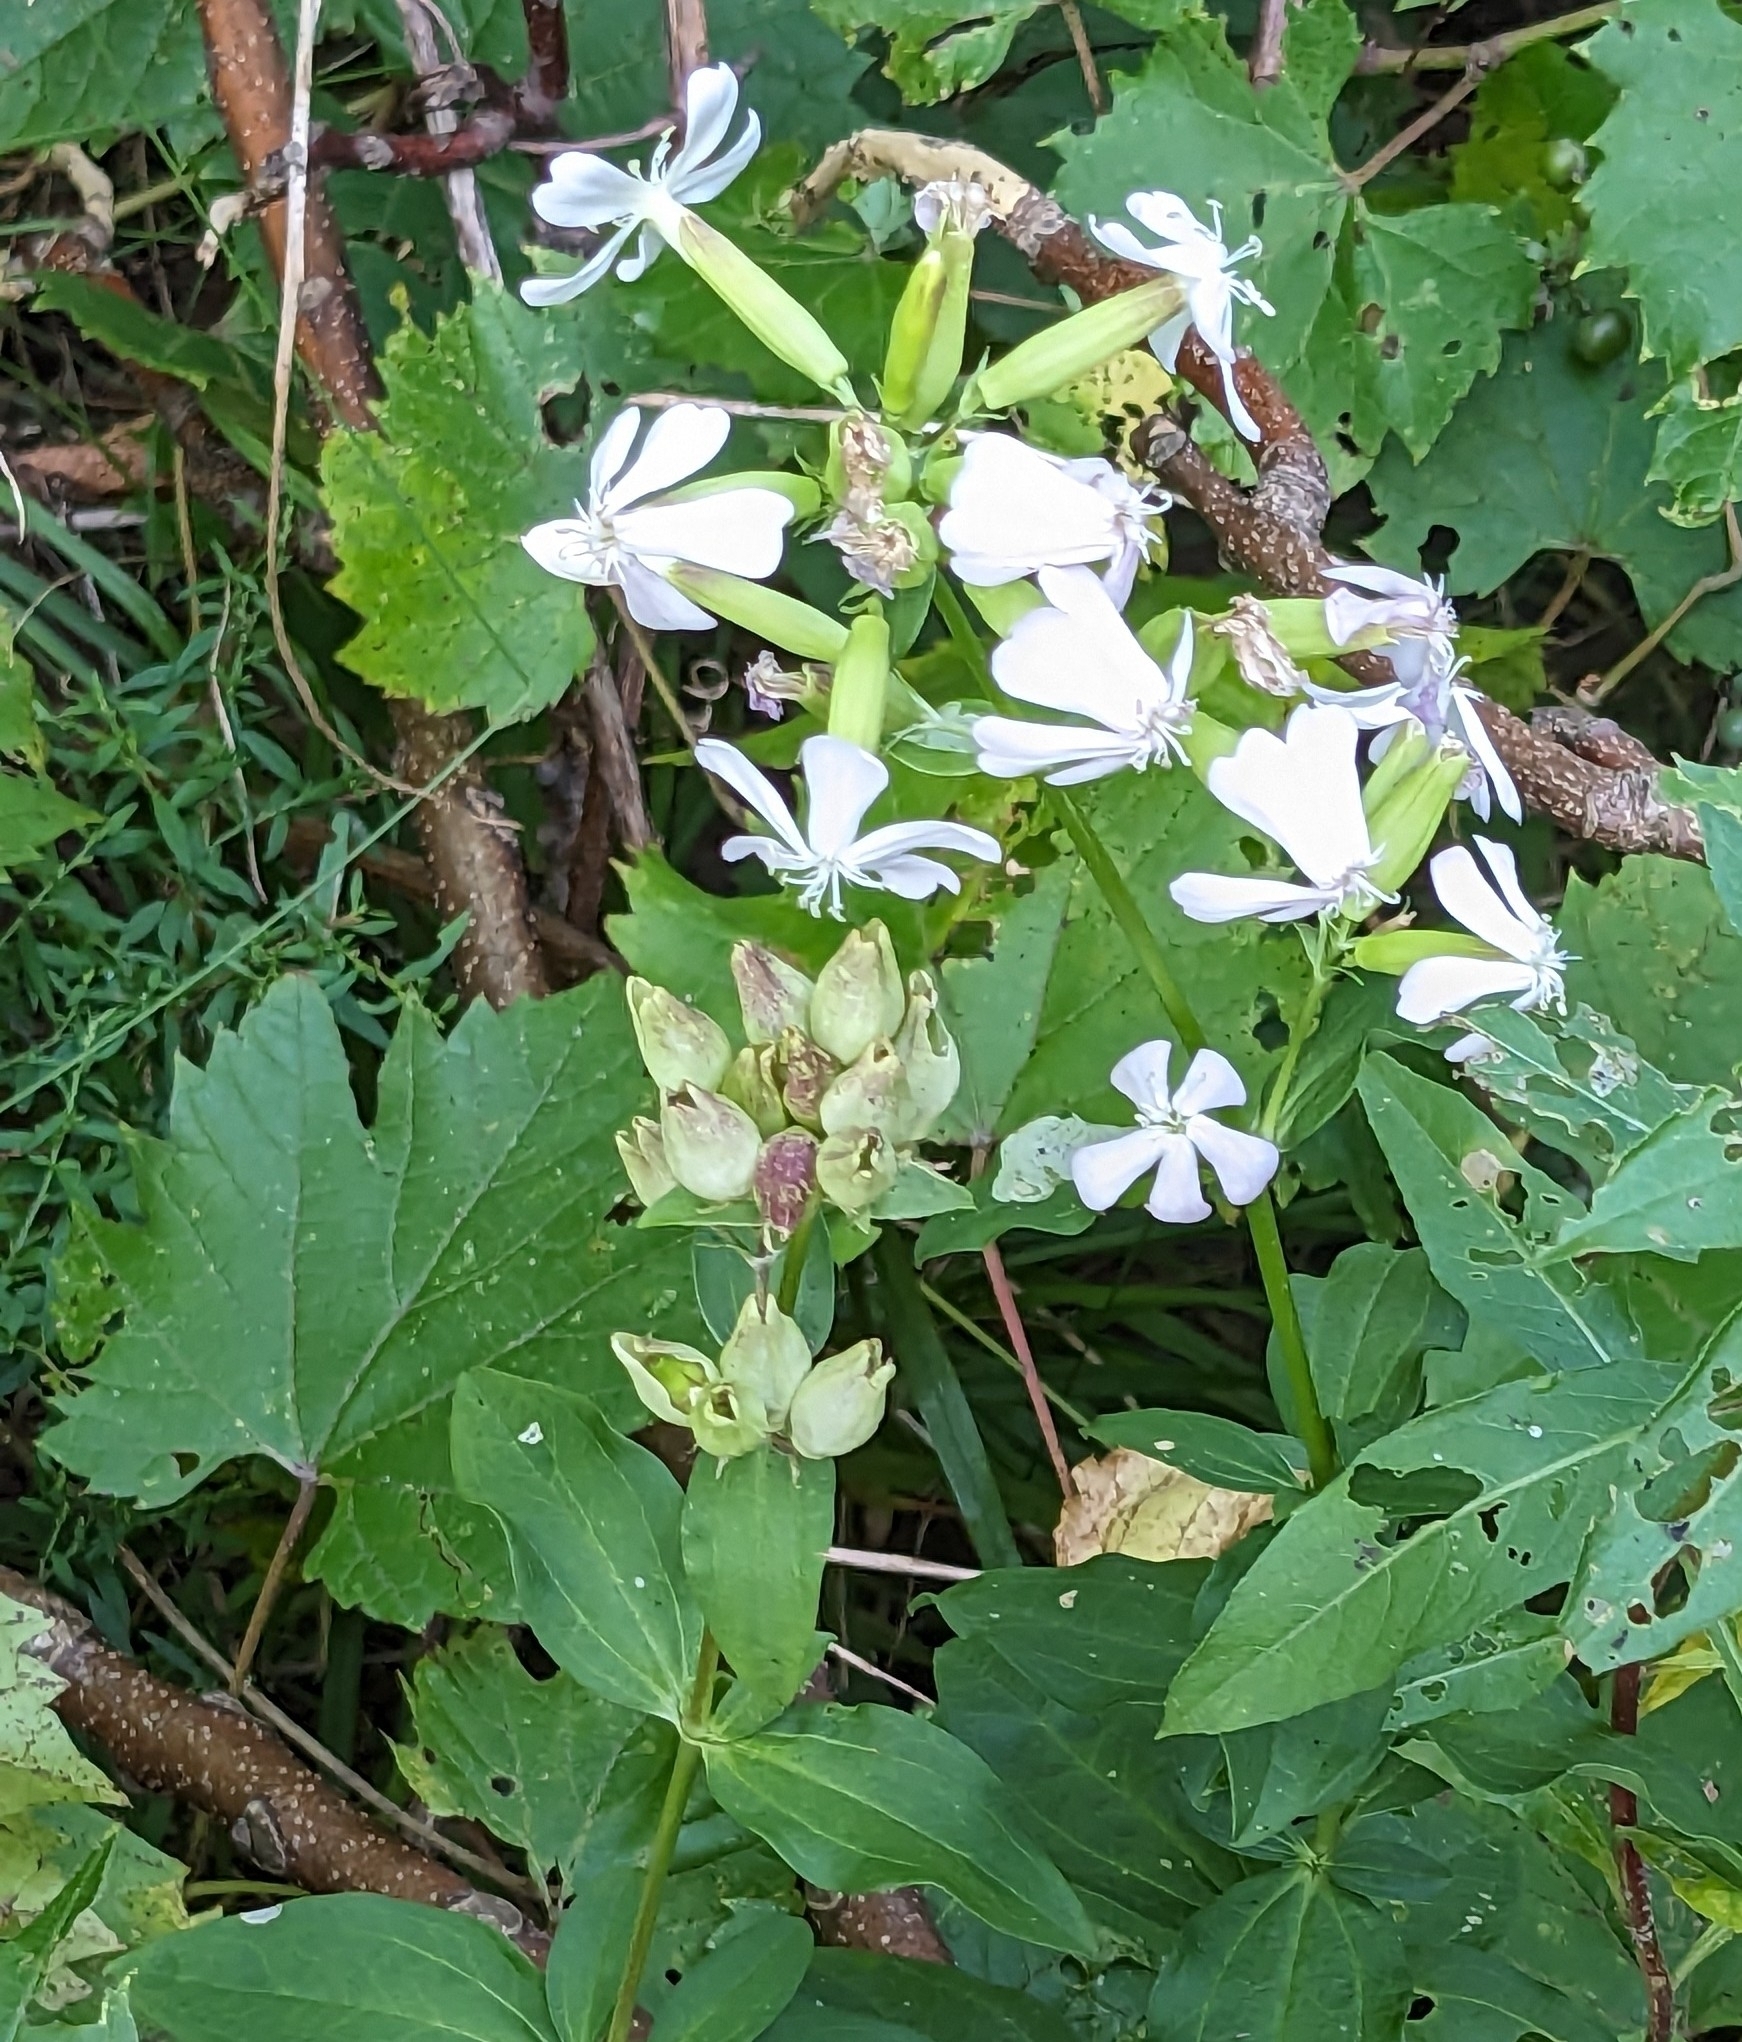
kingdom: Plantae
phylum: Tracheophyta
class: Magnoliopsida
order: Caryophyllales
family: Caryophyllaceae
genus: Saponaria
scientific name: Saponaria officinalis
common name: Soapwort
